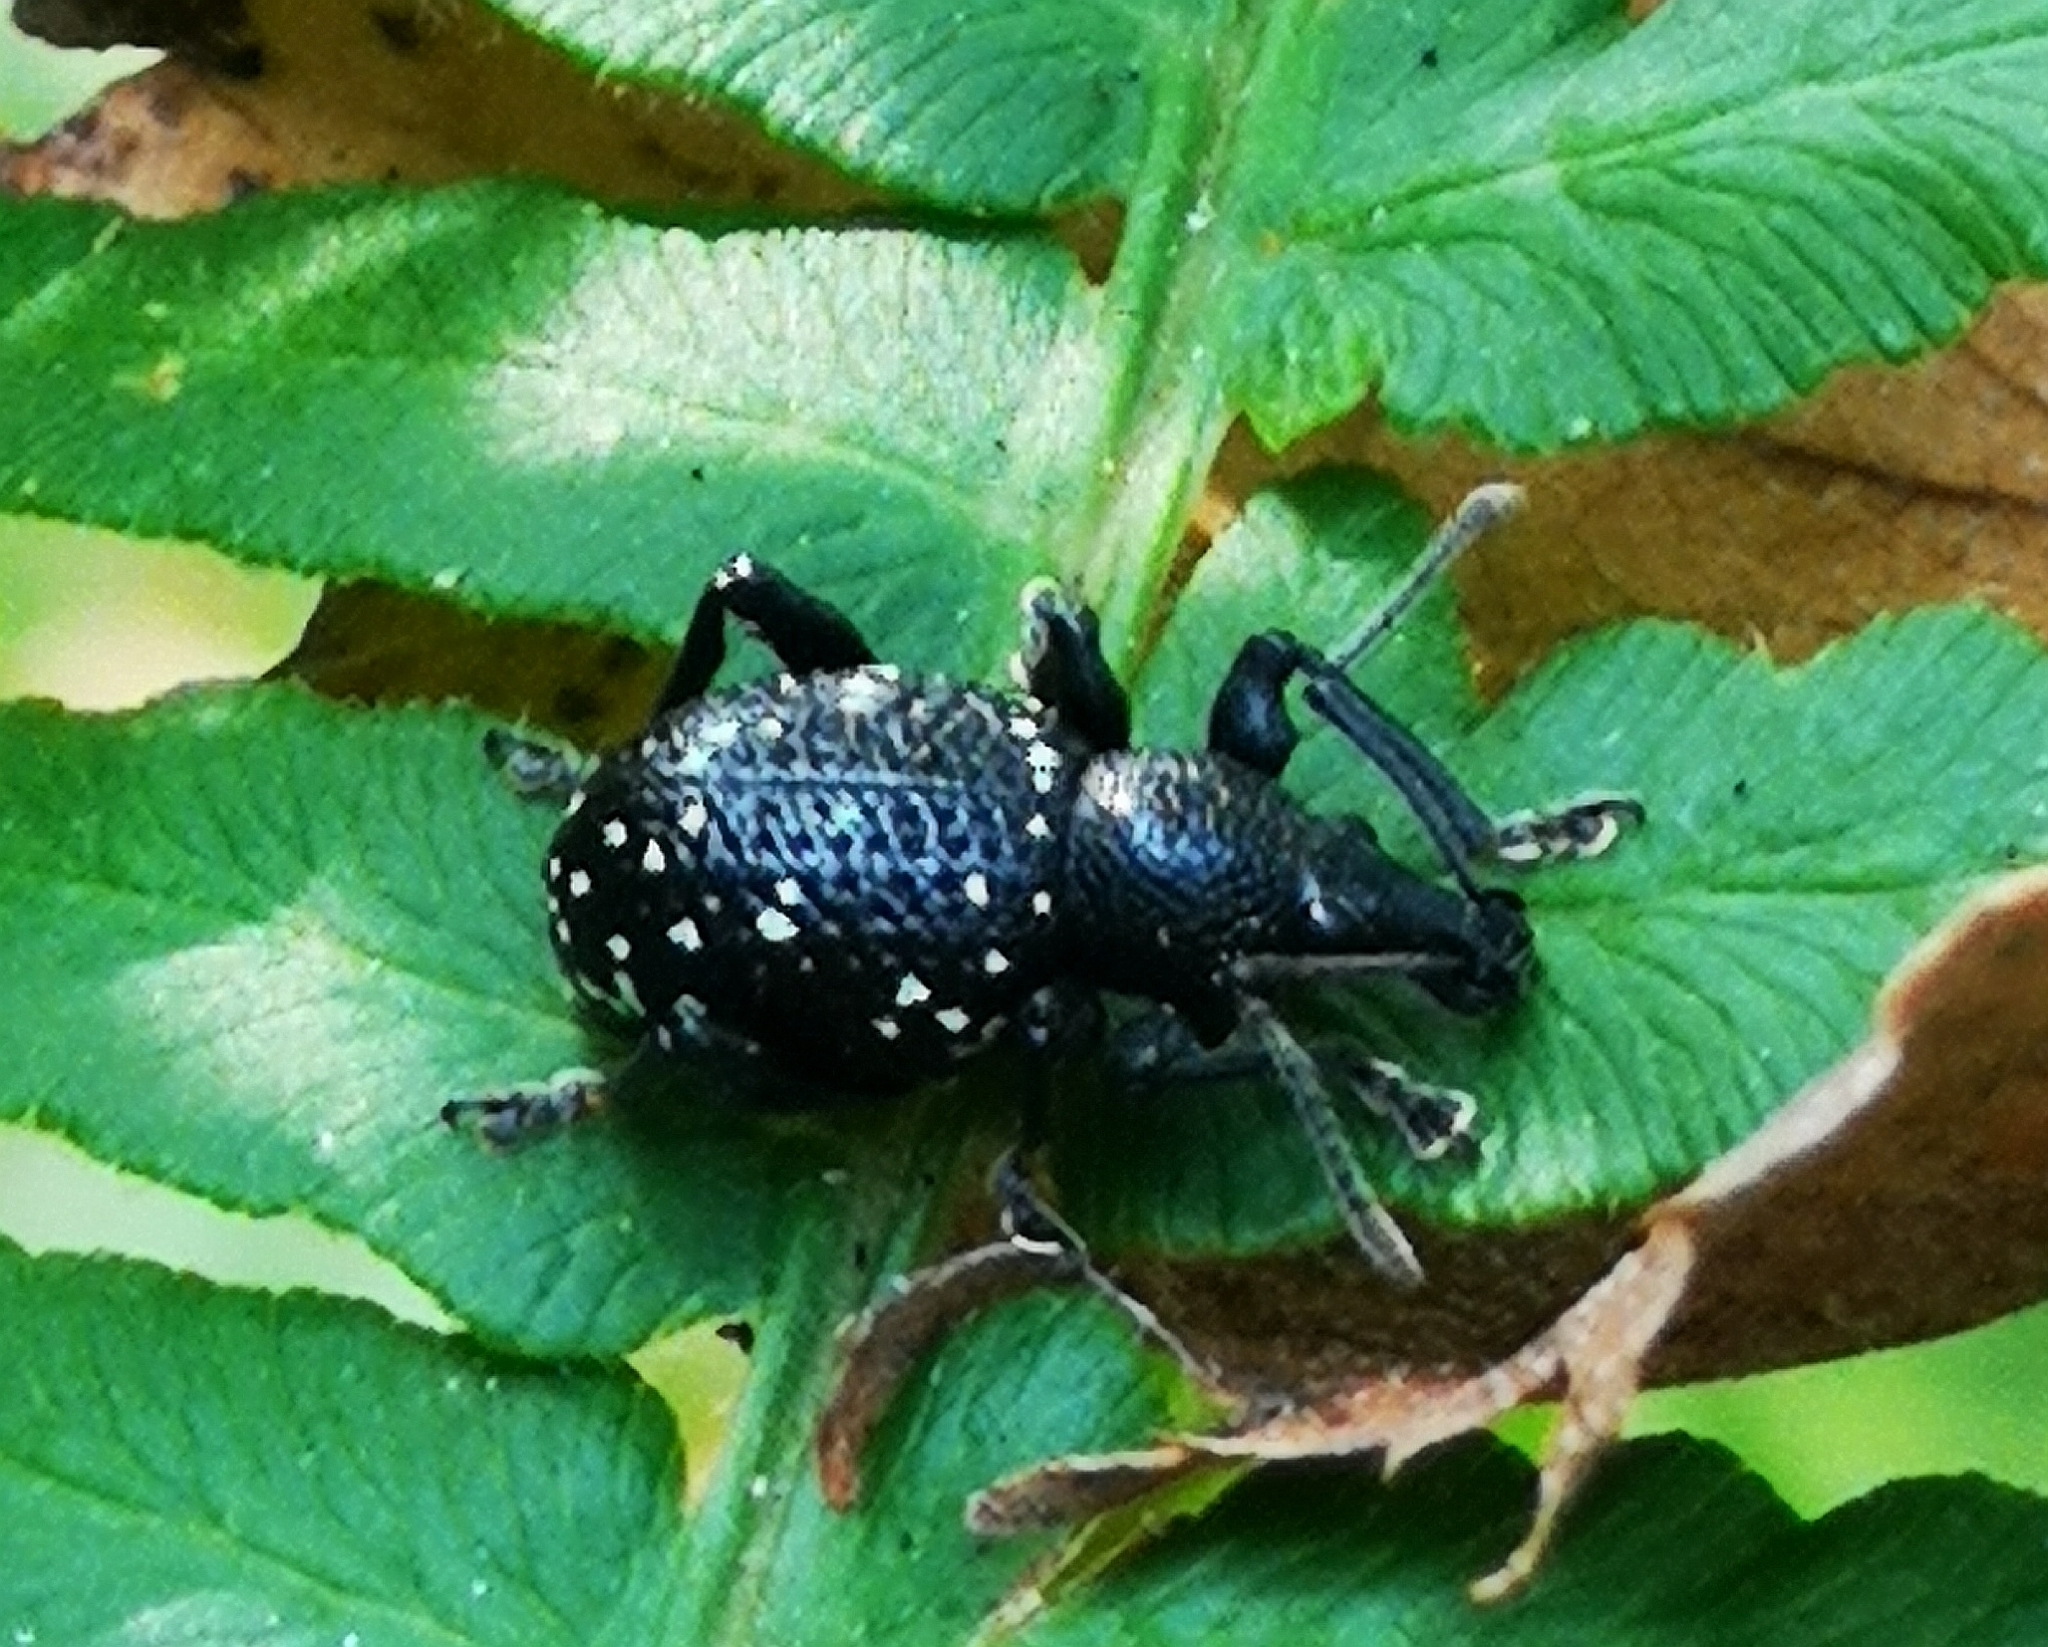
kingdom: Animalia
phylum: Arthropoda
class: Insecta
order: Coleoptera
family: Curculionidae
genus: Otiorhynchus
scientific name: Otiorhynchus gemmatus
